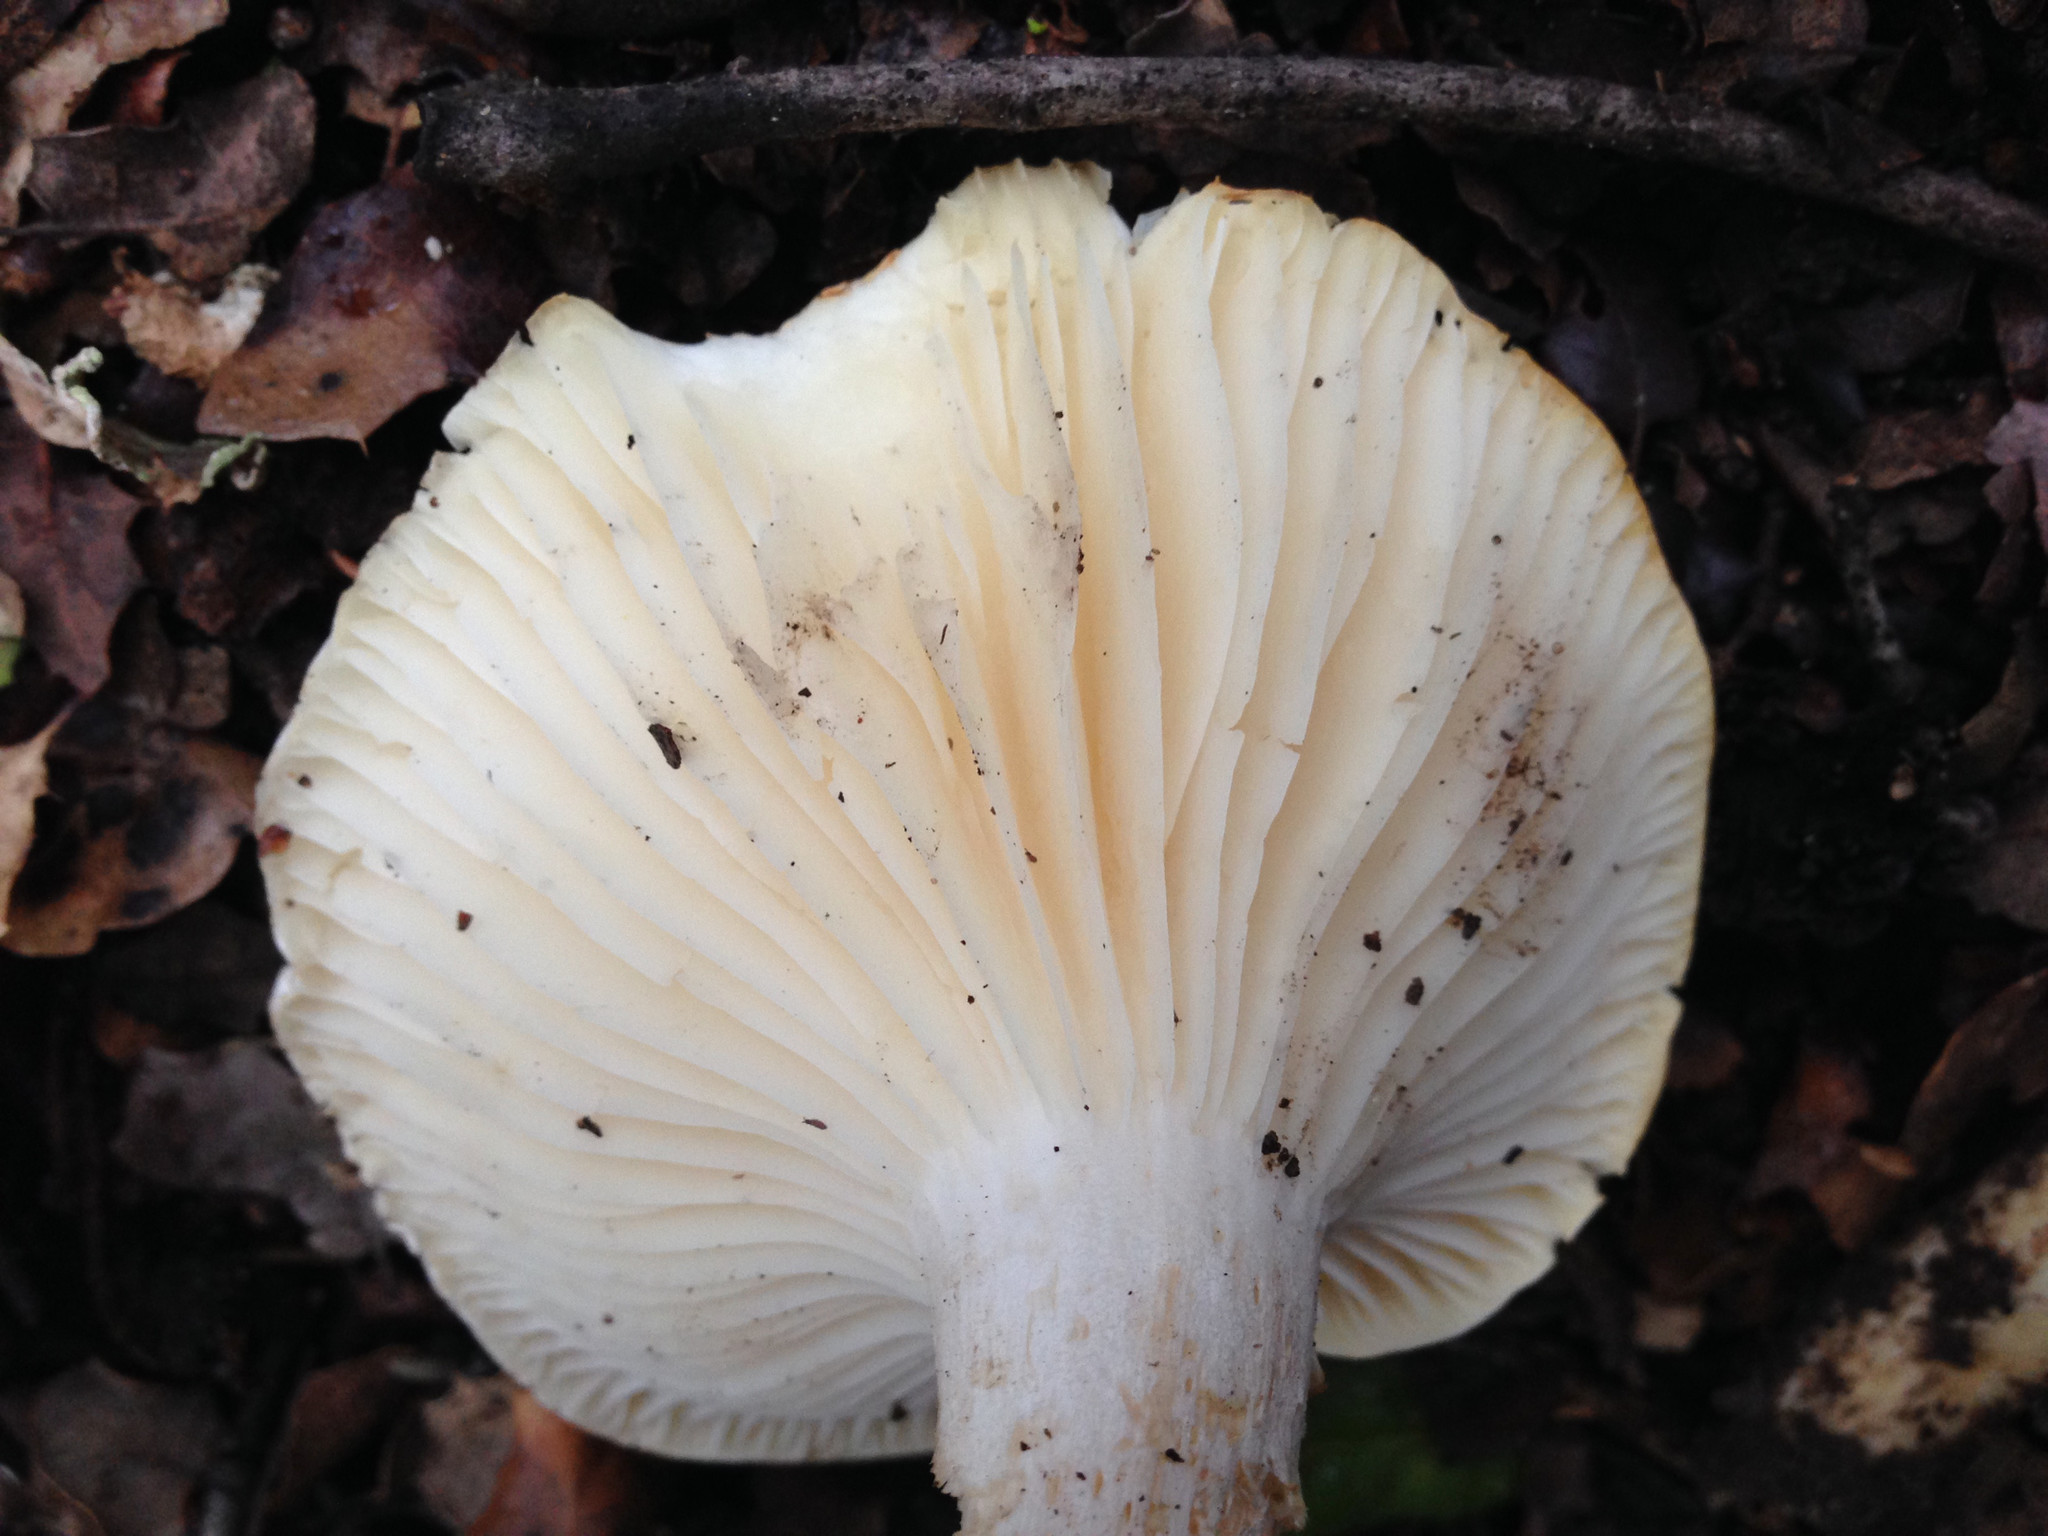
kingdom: Fungi
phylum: Basidiomycota
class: Agaricomycetes
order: Agaricales
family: Hygrophoraceae
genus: Hygrophorus
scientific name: Hygrophorus sordidus
